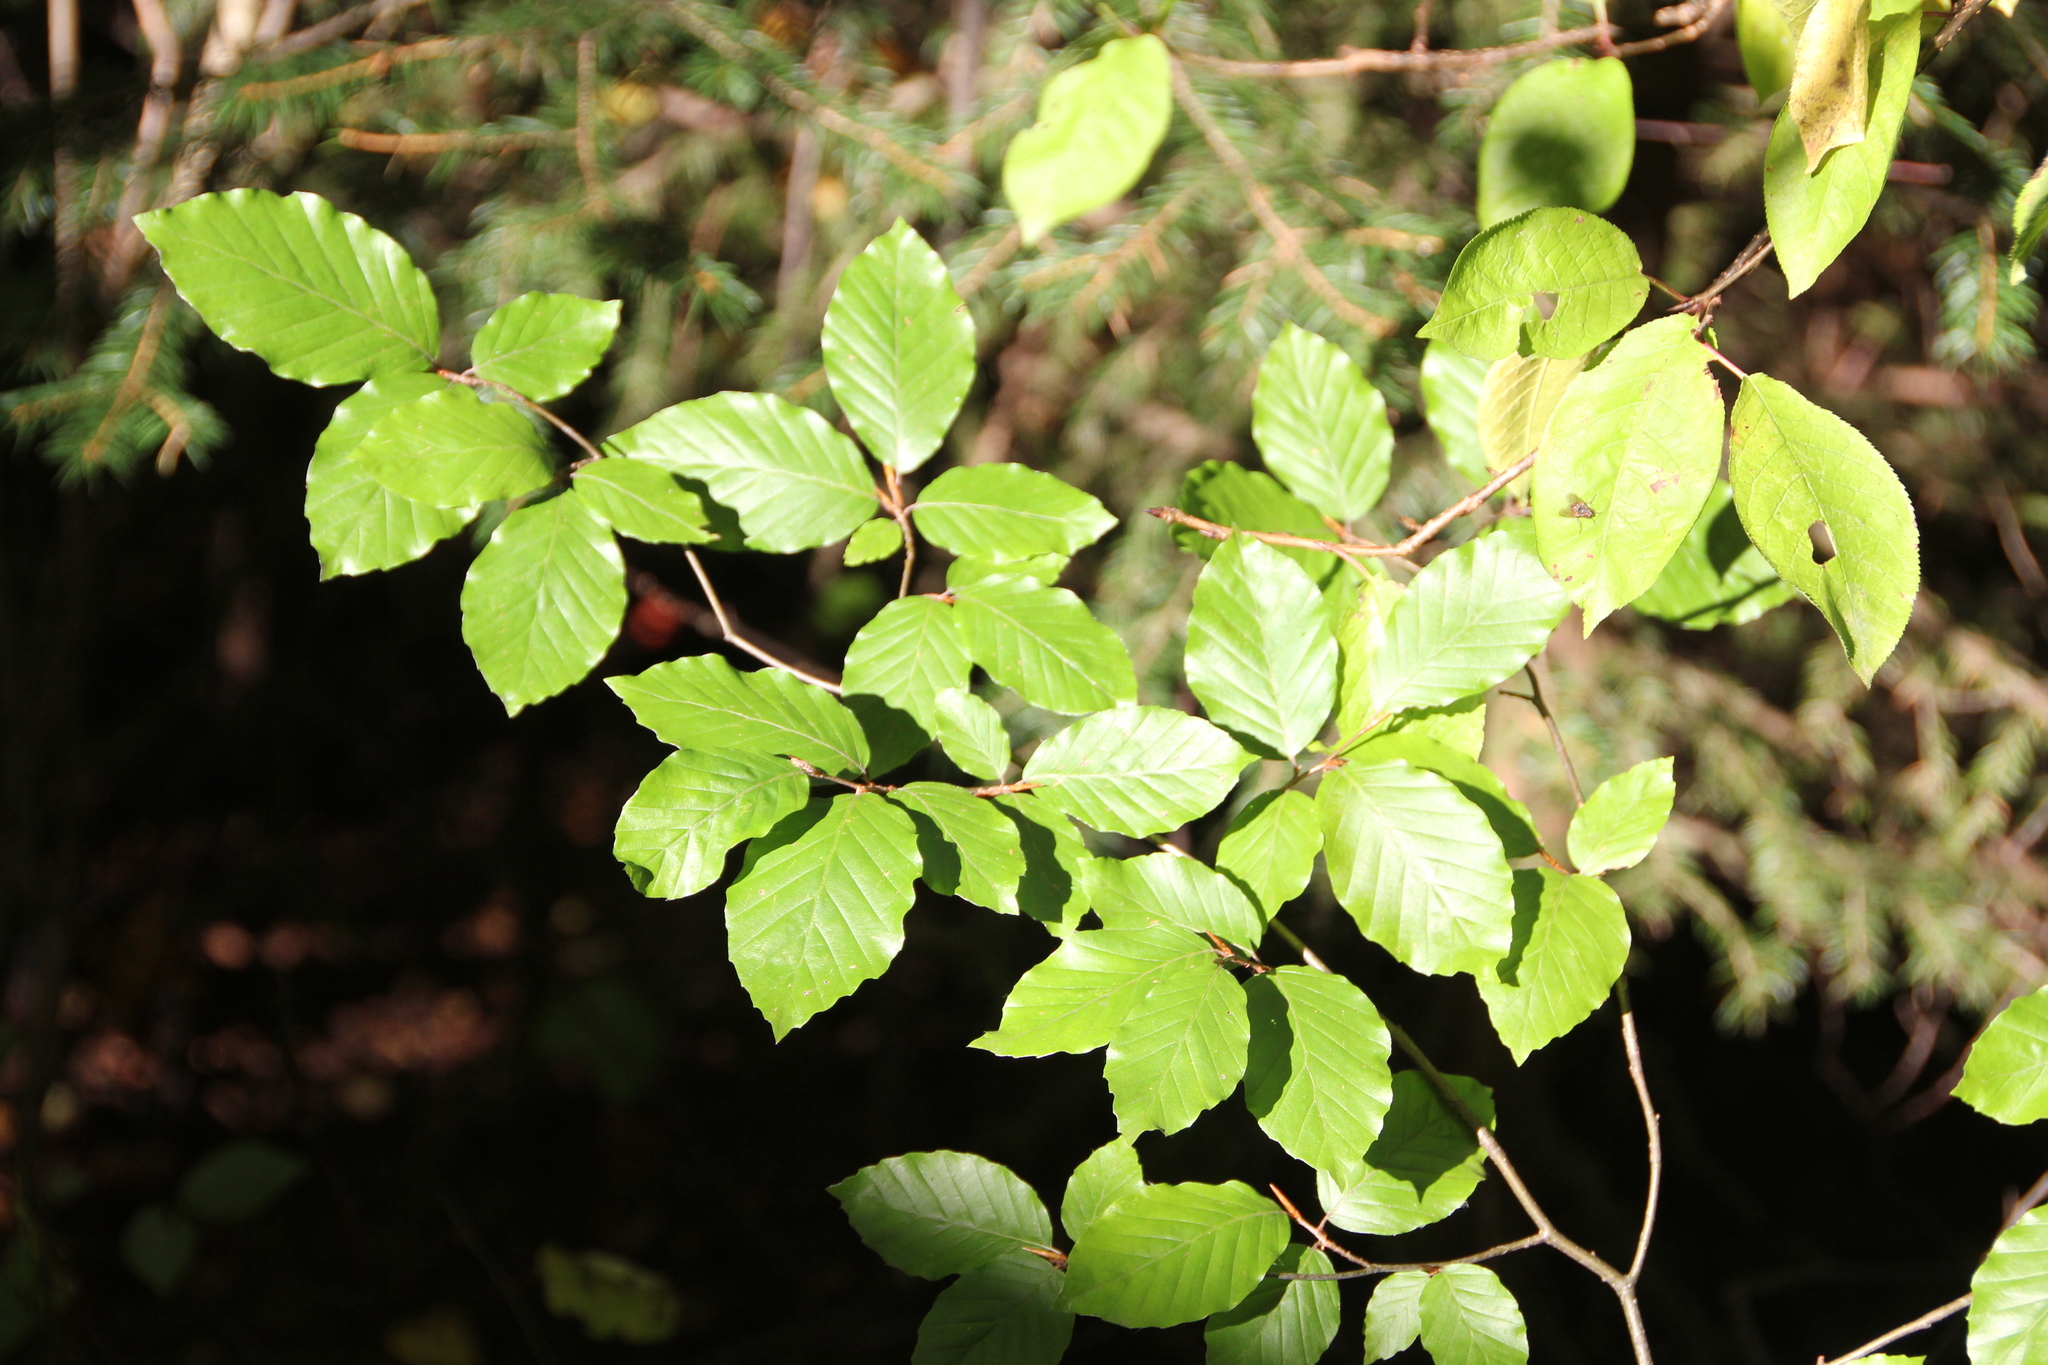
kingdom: Plantae
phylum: Tracheophyta
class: Magnoliopsida
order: Fagales
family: Fagaceae
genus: Fagus
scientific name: Fagus sylvatica
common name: Beech
